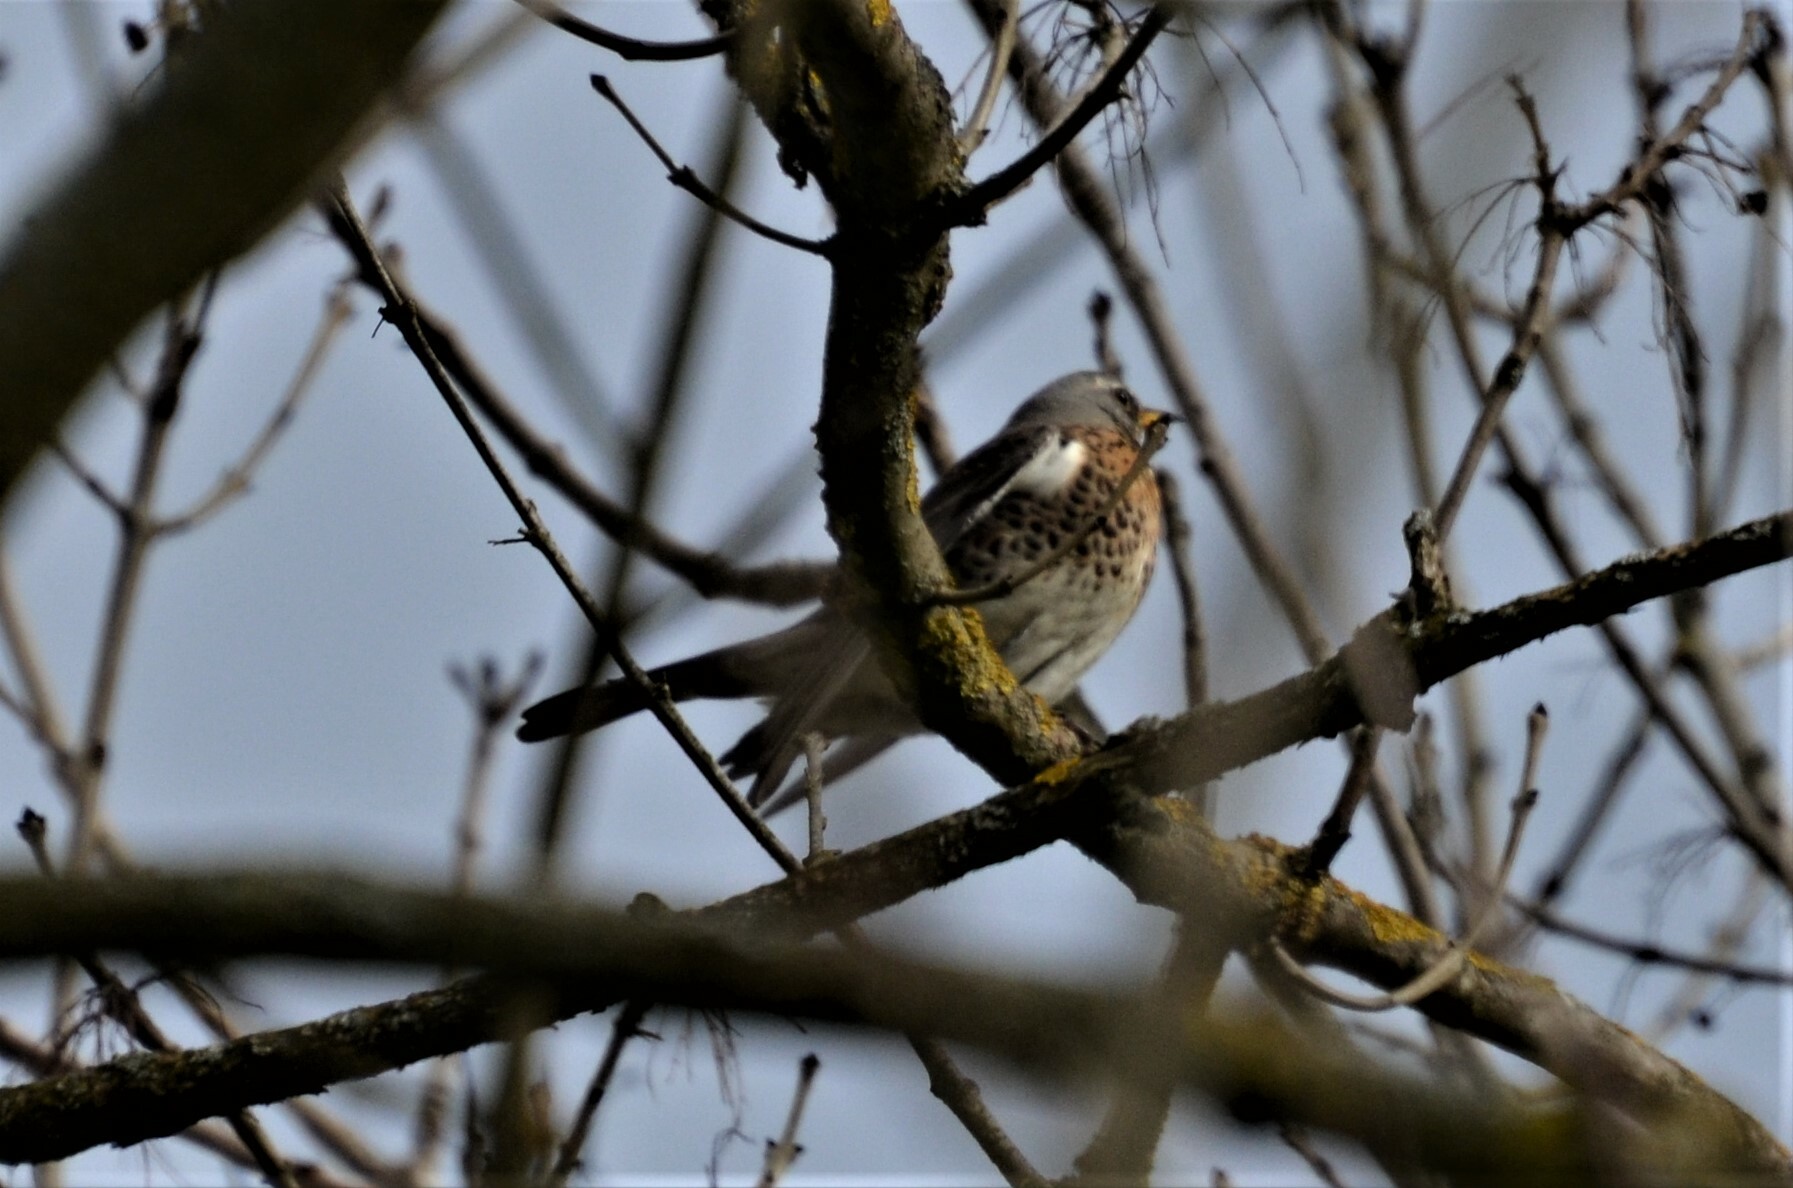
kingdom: Animalia
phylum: Chordata
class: Aves
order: Passeriformes
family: Turdidae
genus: Turdus
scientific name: Turdus pilaris
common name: Fieldfare
